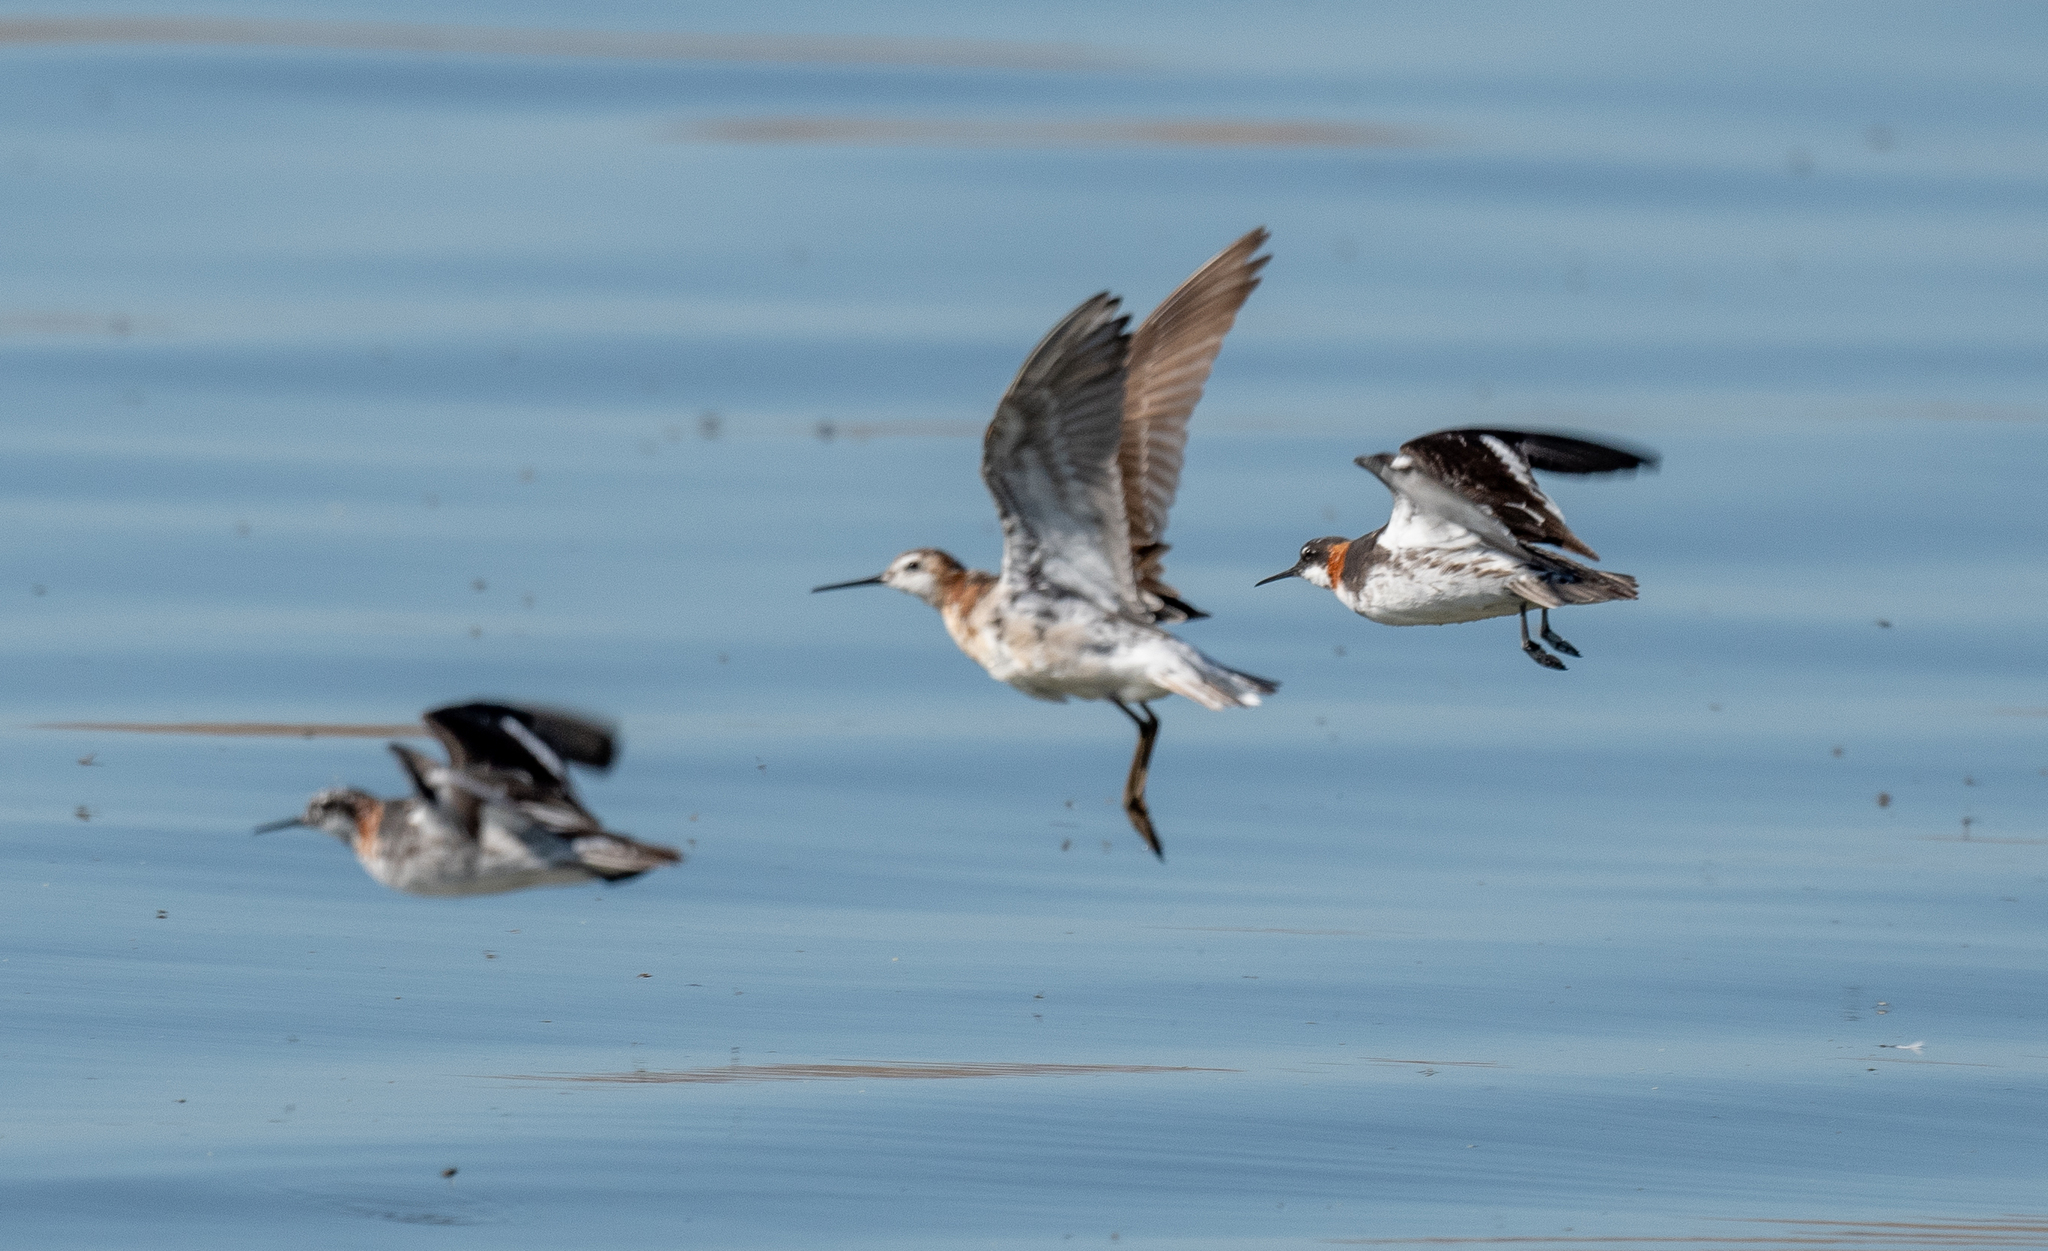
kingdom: Animalia
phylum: Chordata
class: Aves
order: Charadriiformes
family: Scolopacidae
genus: Phalaropus
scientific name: Phalaropus tricolor
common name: Wilson's phalarope
